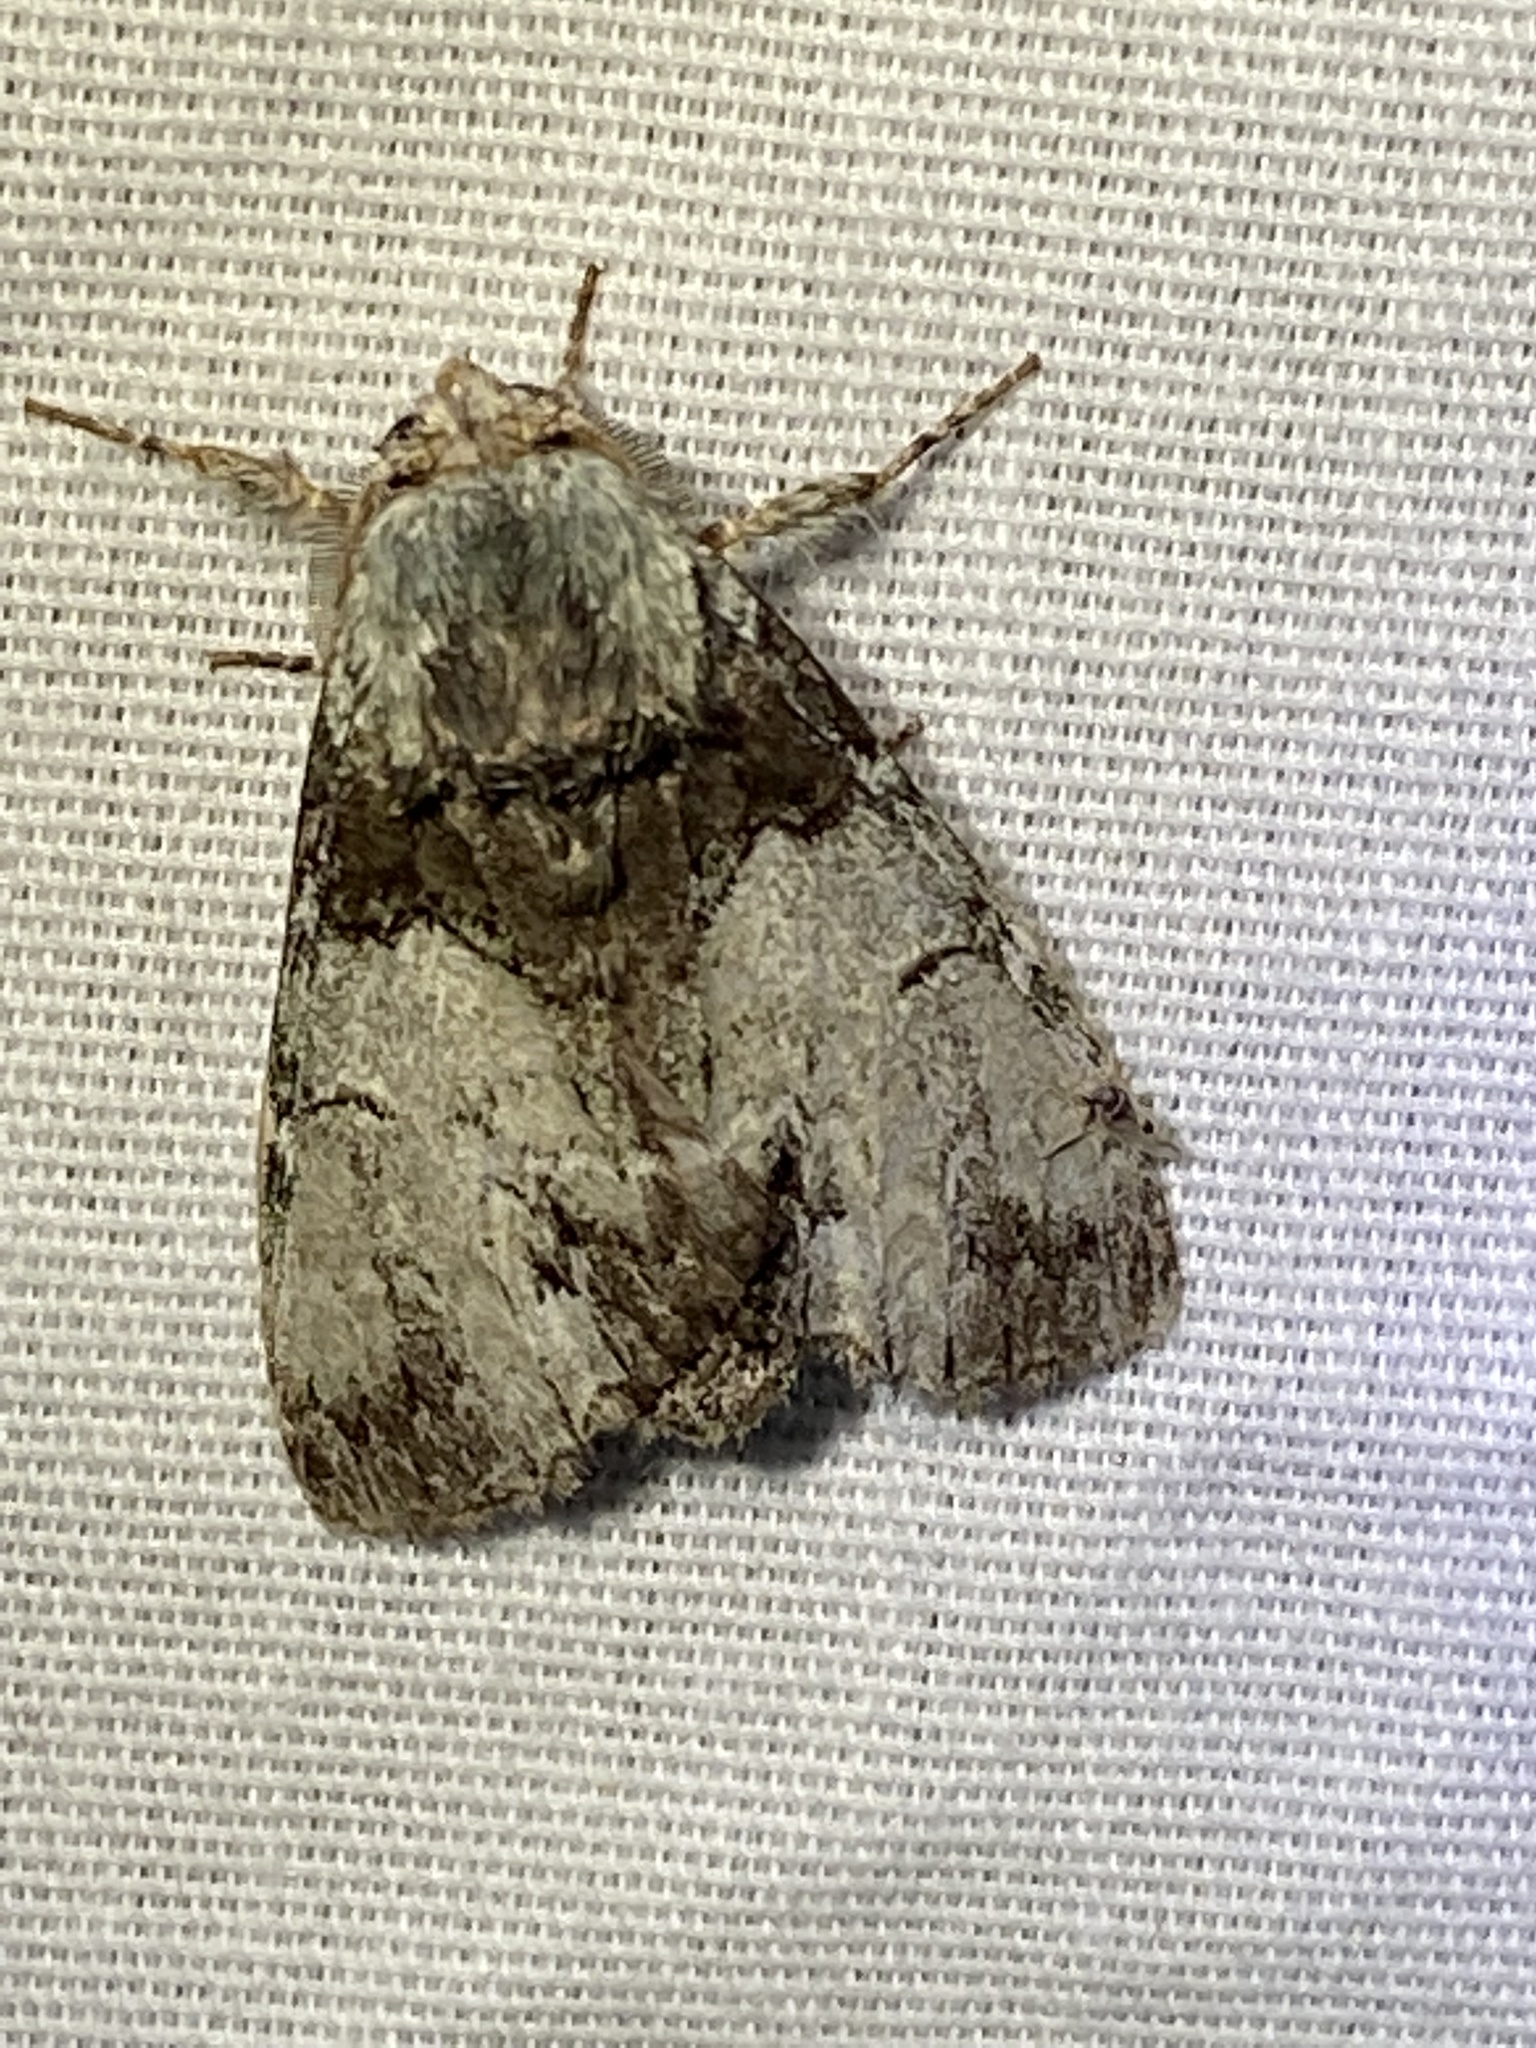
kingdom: Animalia
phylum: Arthropoda
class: Insecta
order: Lepidoptera
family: Notodontidae
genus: Macrurocampa
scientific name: Macrurocampa marthesia
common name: Mottled prominent
